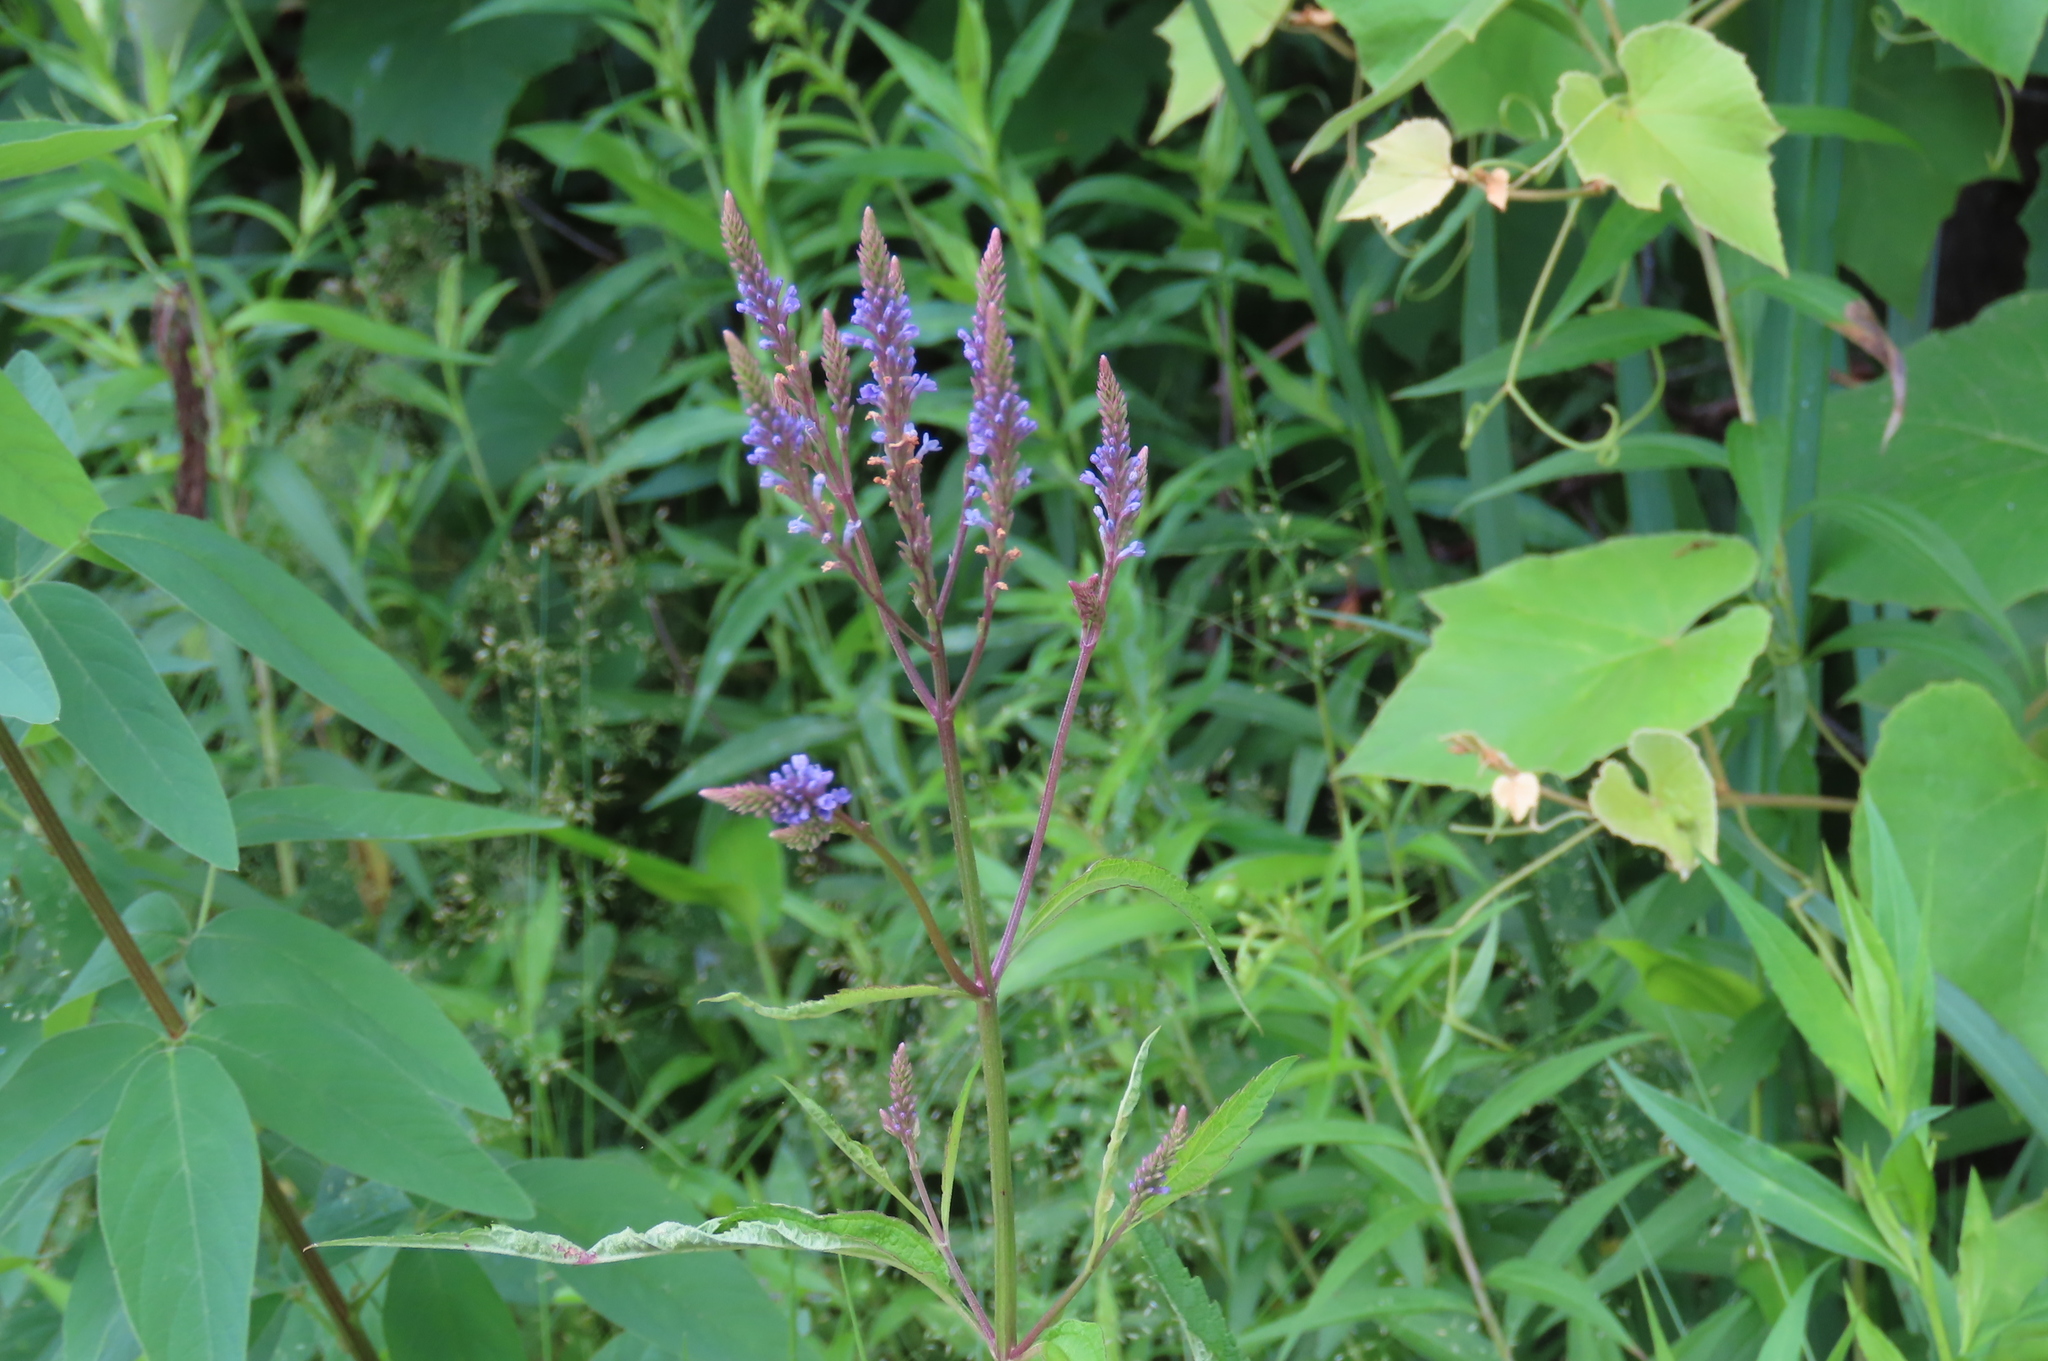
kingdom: Plantae
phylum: Tracheophyta
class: Magnoliopsida
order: Lamiales
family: Verbenaceae
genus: Verbena
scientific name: Verbena hastata
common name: American blue vervain
